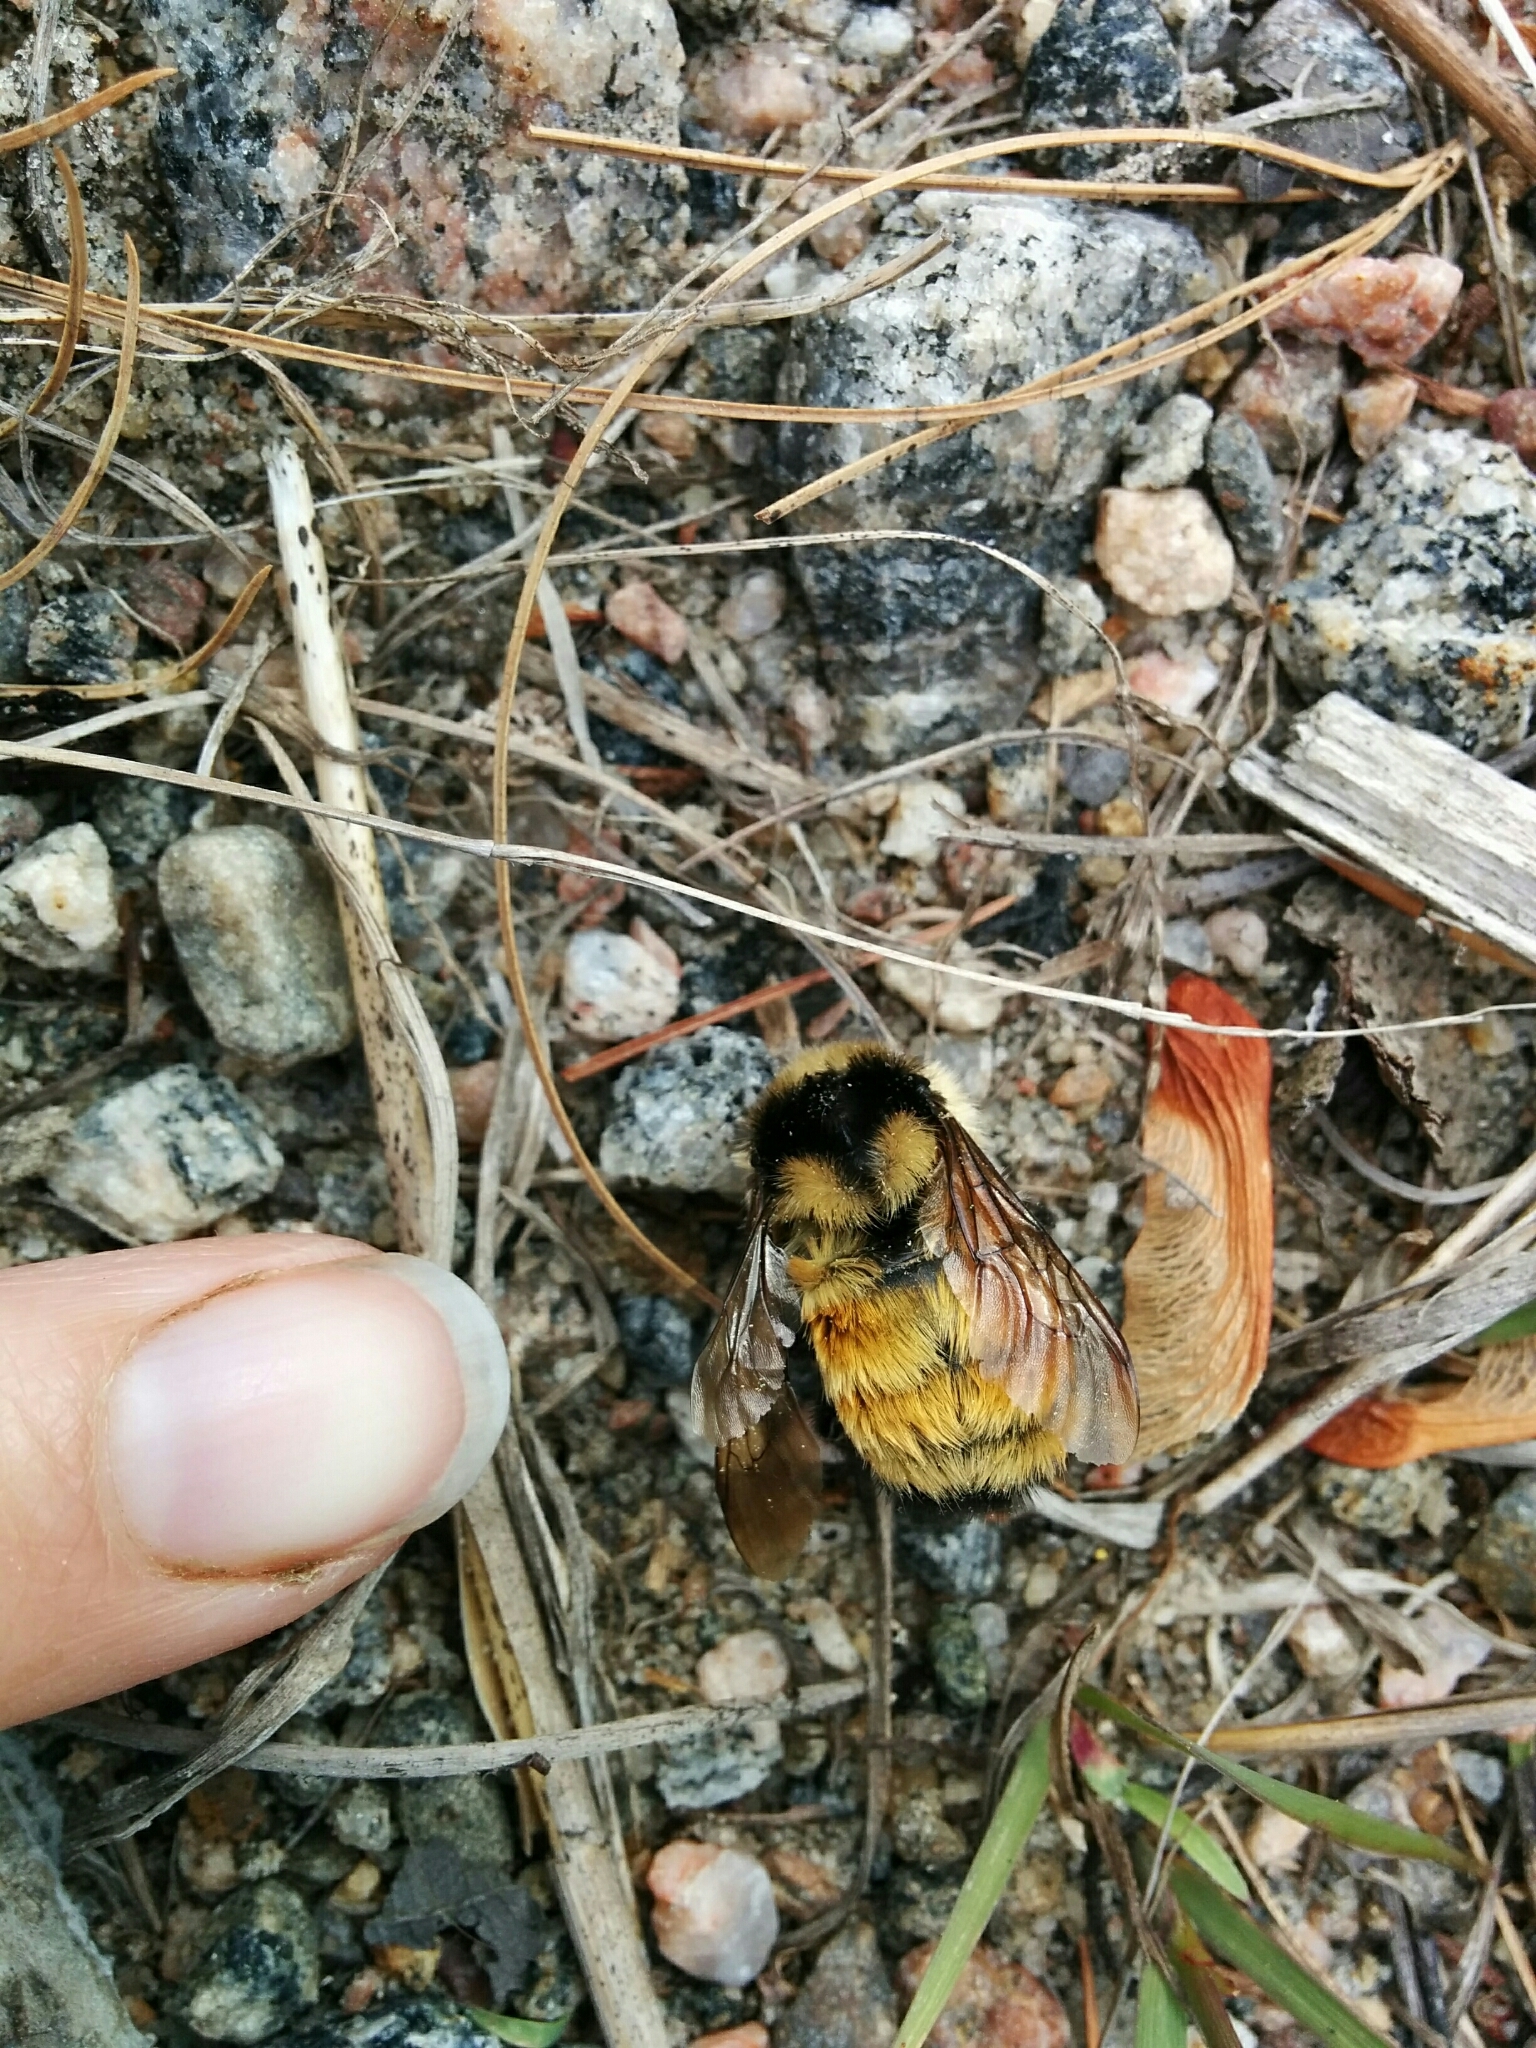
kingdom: Animalia
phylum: Arthropoda
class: Insecta
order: Hymenoptera
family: Apidae
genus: Bombus
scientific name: Bombus ternarius
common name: Tri-colored bumble bee
